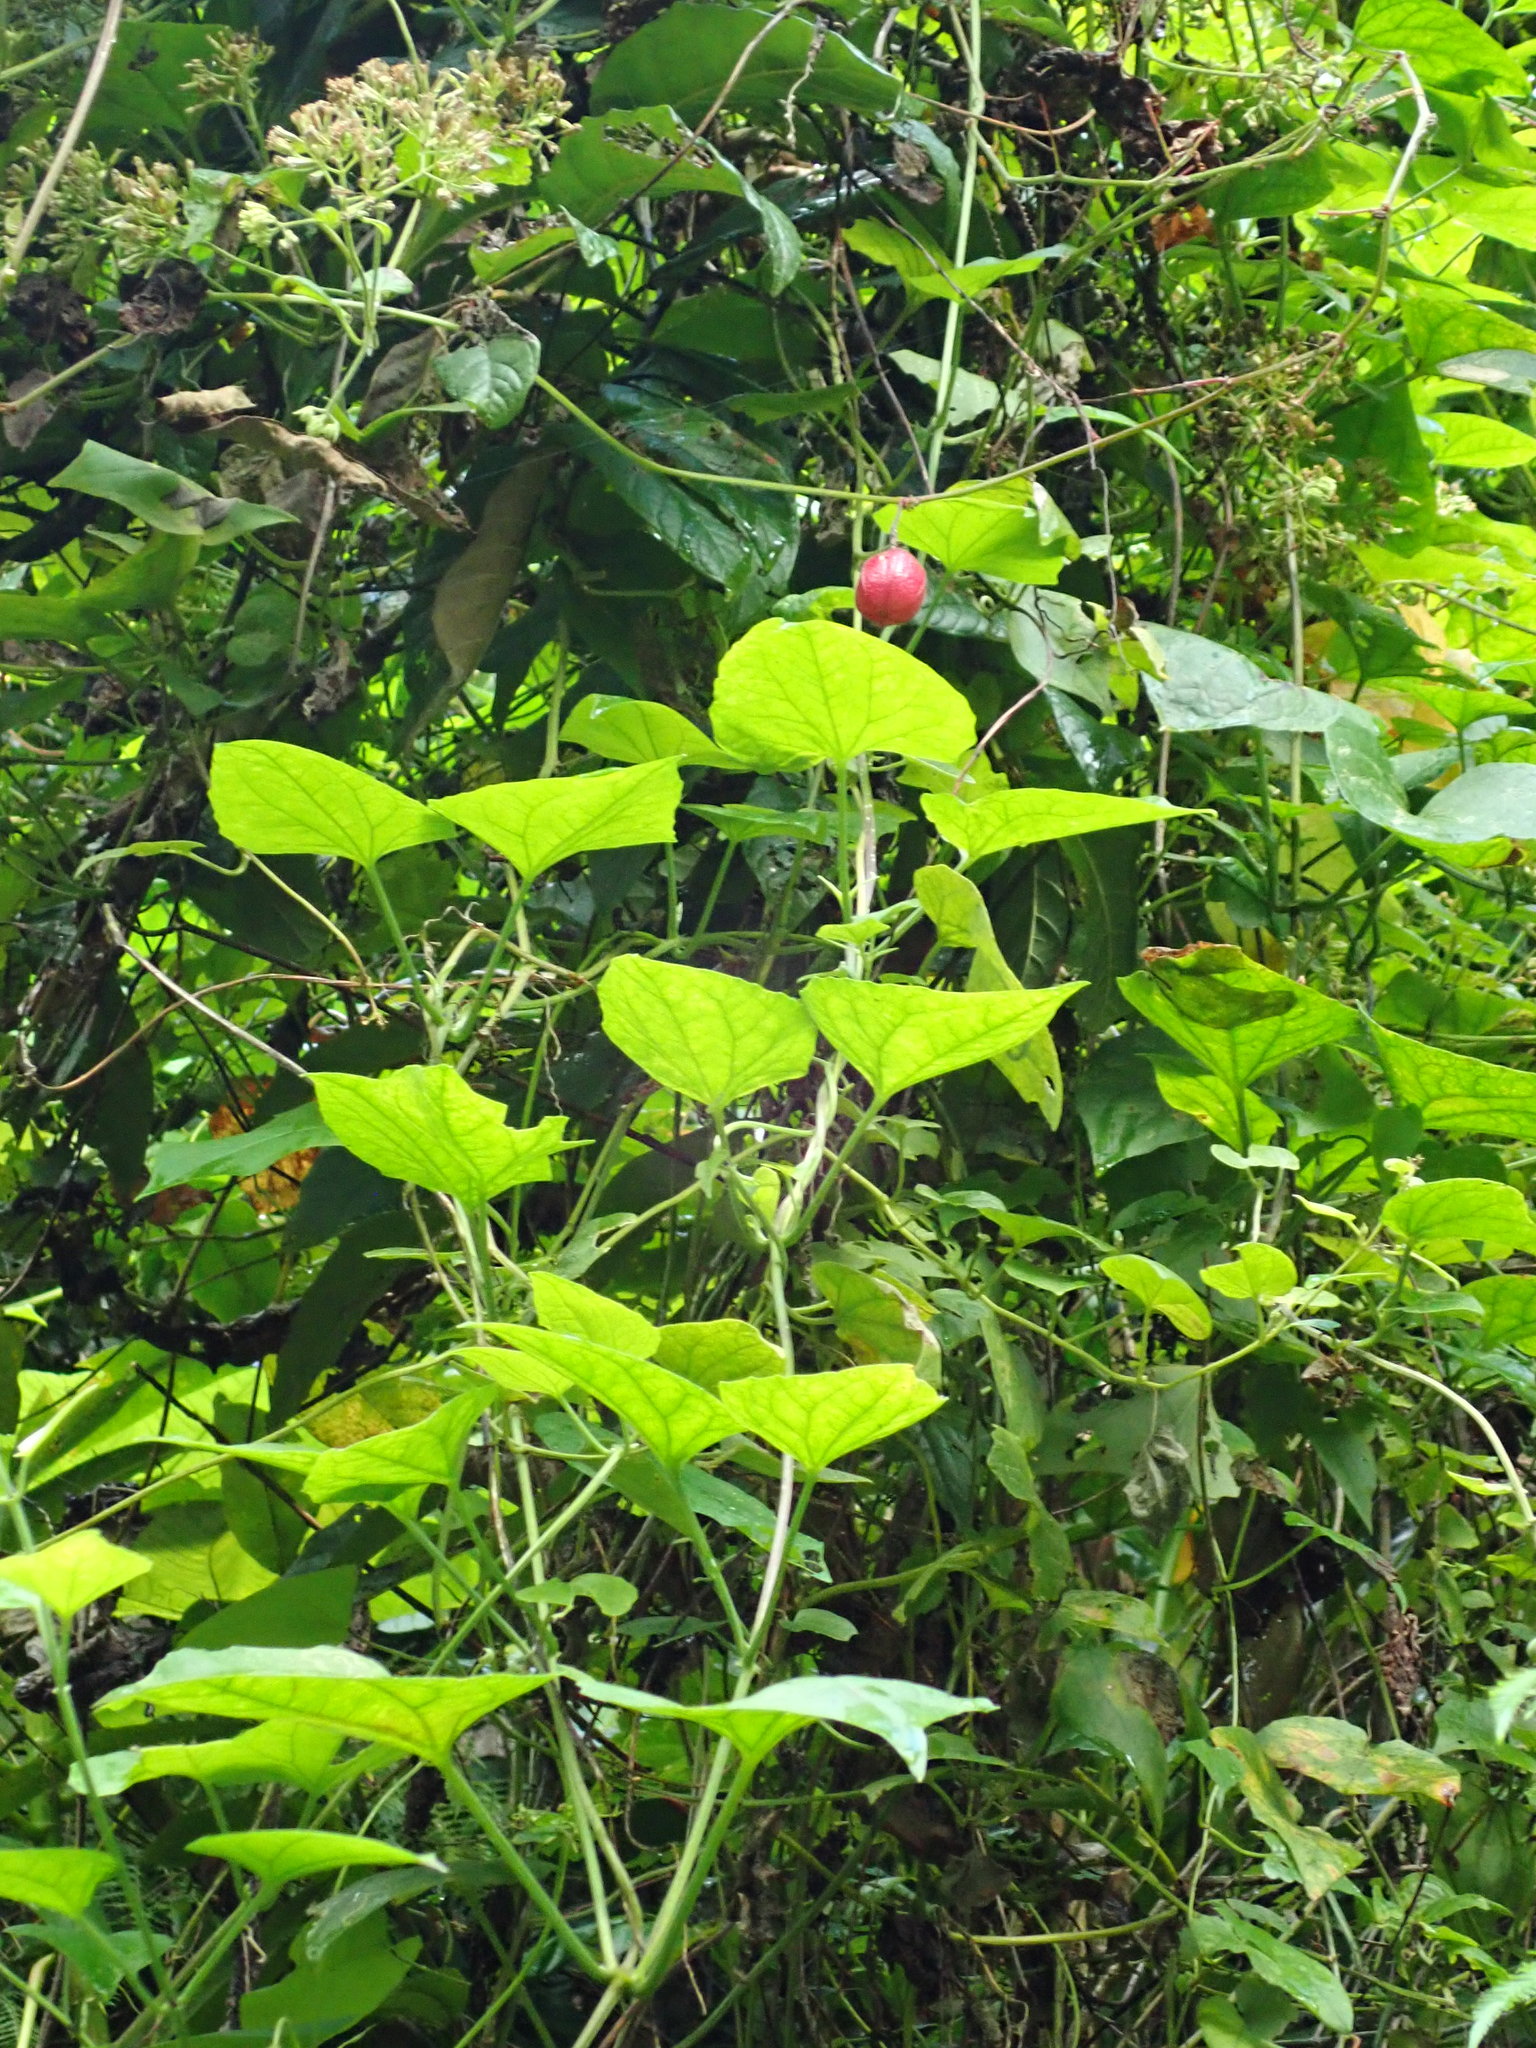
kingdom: Plantae
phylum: Tracheophyta
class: Magnoliopsida
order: Malpighiales
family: Passifloraceae
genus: Passiflora
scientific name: Passiflora rubra
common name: Snakeberry vine
